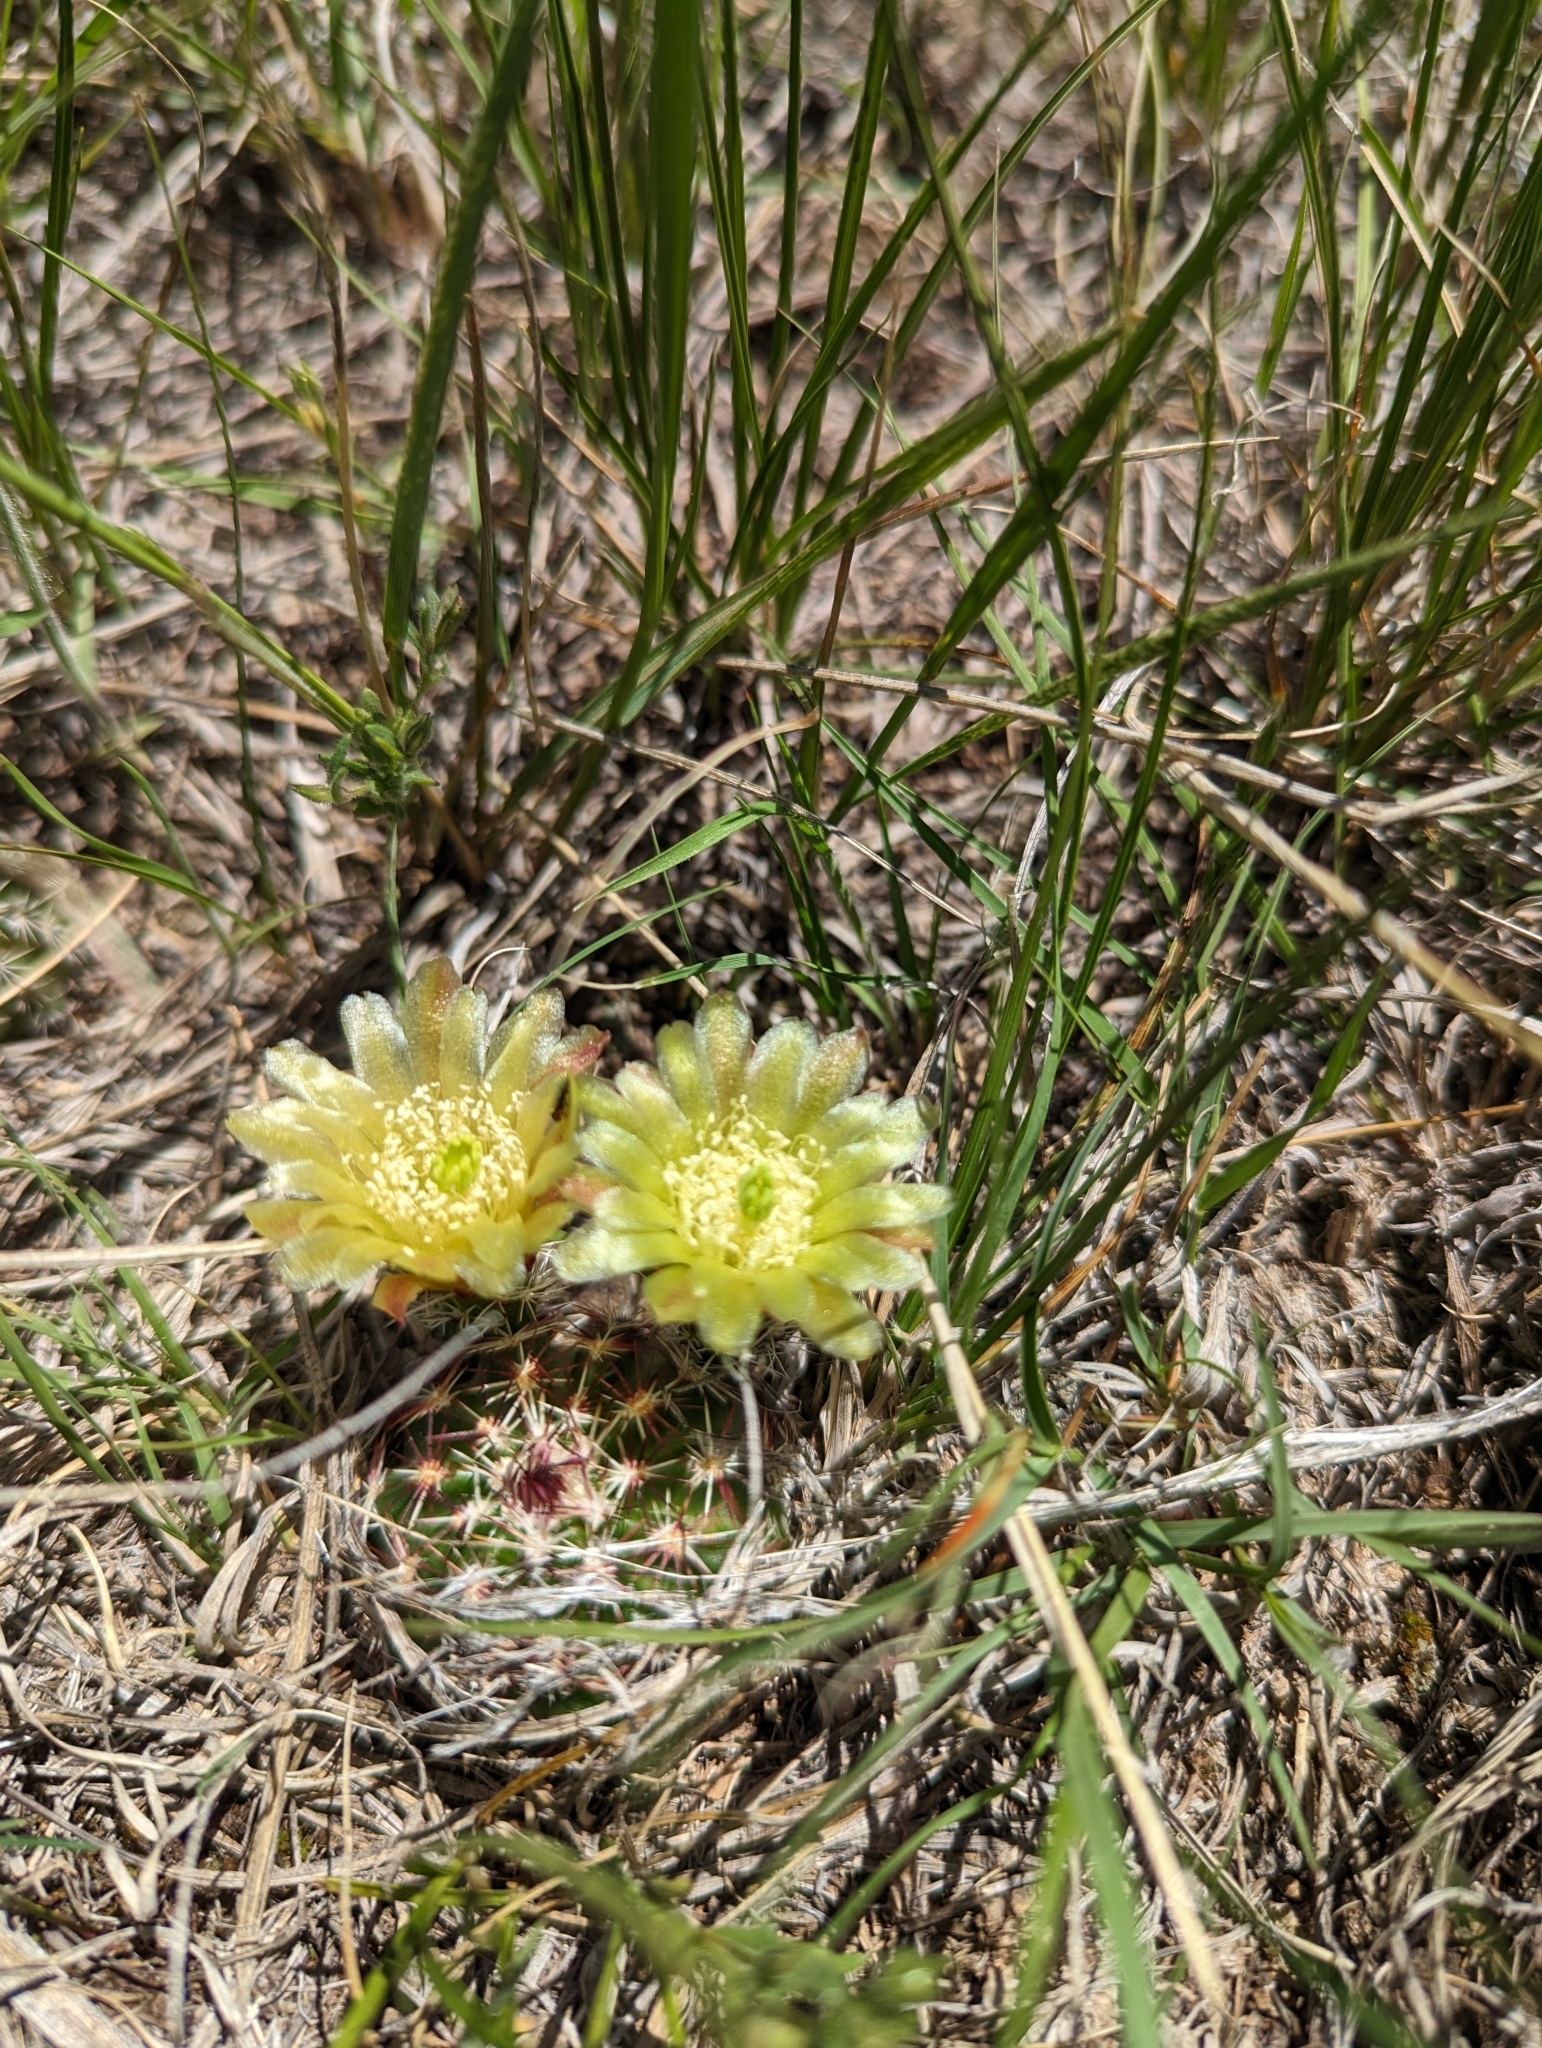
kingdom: Plantae
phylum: Tracheophyta
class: Magnoliopsida
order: Caryophyllales
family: Cactaceae
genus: Echinocereus
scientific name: Echinocereus viridiflorus
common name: Nylon hedgehog cactus
